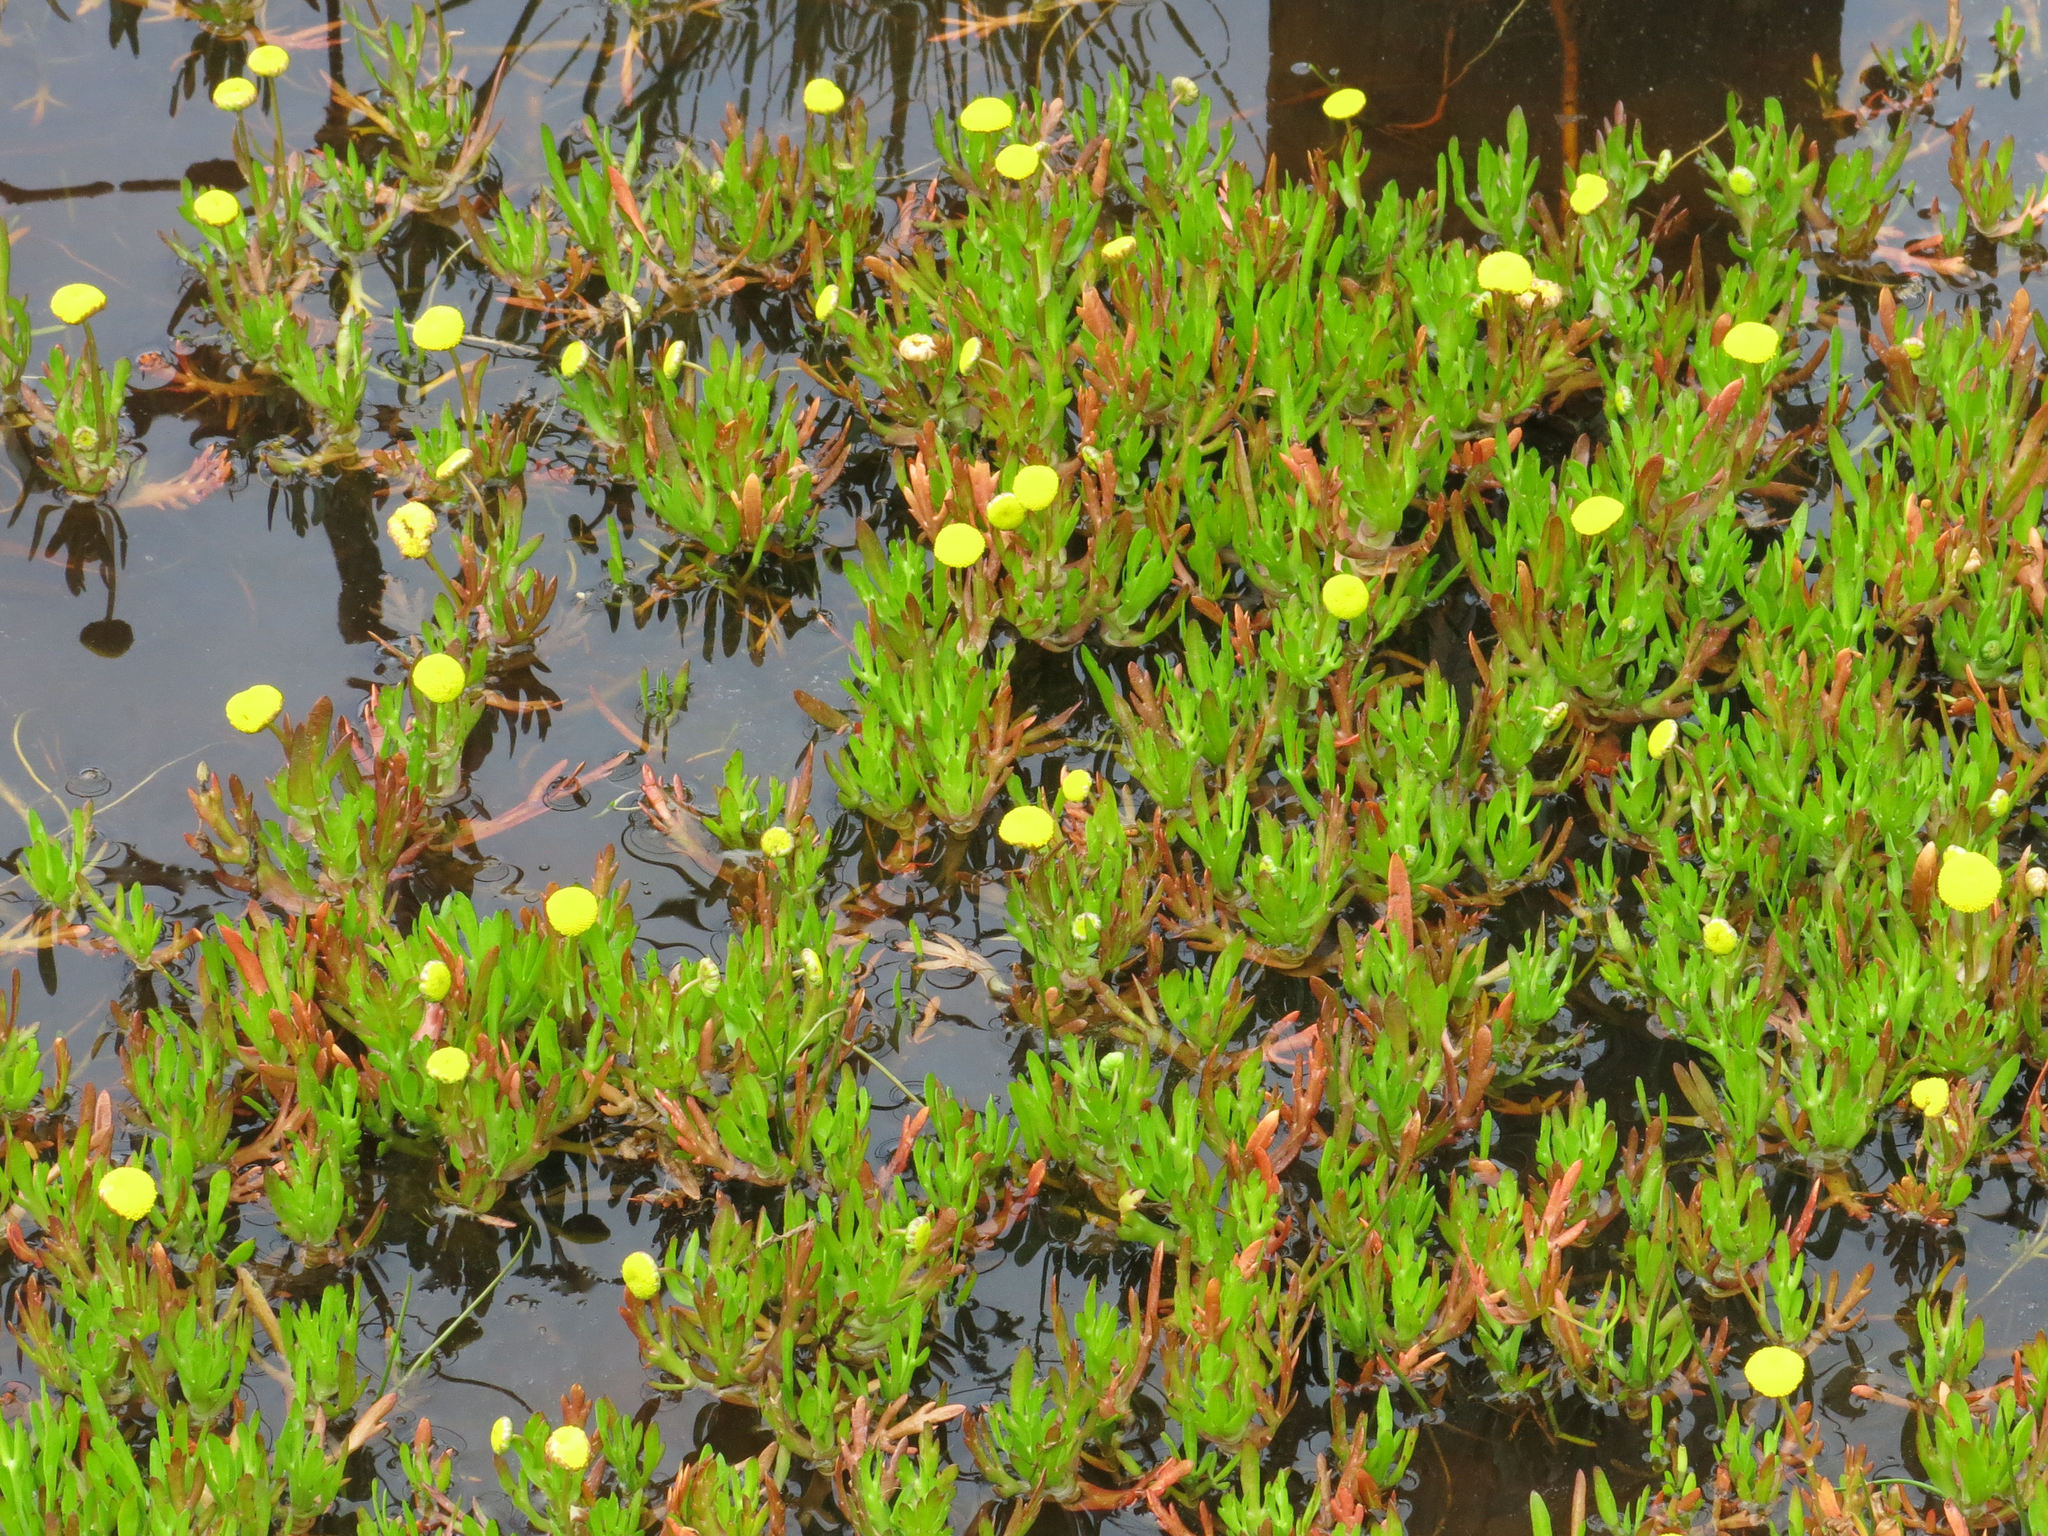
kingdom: Plantae
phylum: Tracheophyta
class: Magnoliopsida
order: Asterales
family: Asteraceae
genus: Cotula
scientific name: Cotula coronopifolia
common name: Buttonweed
